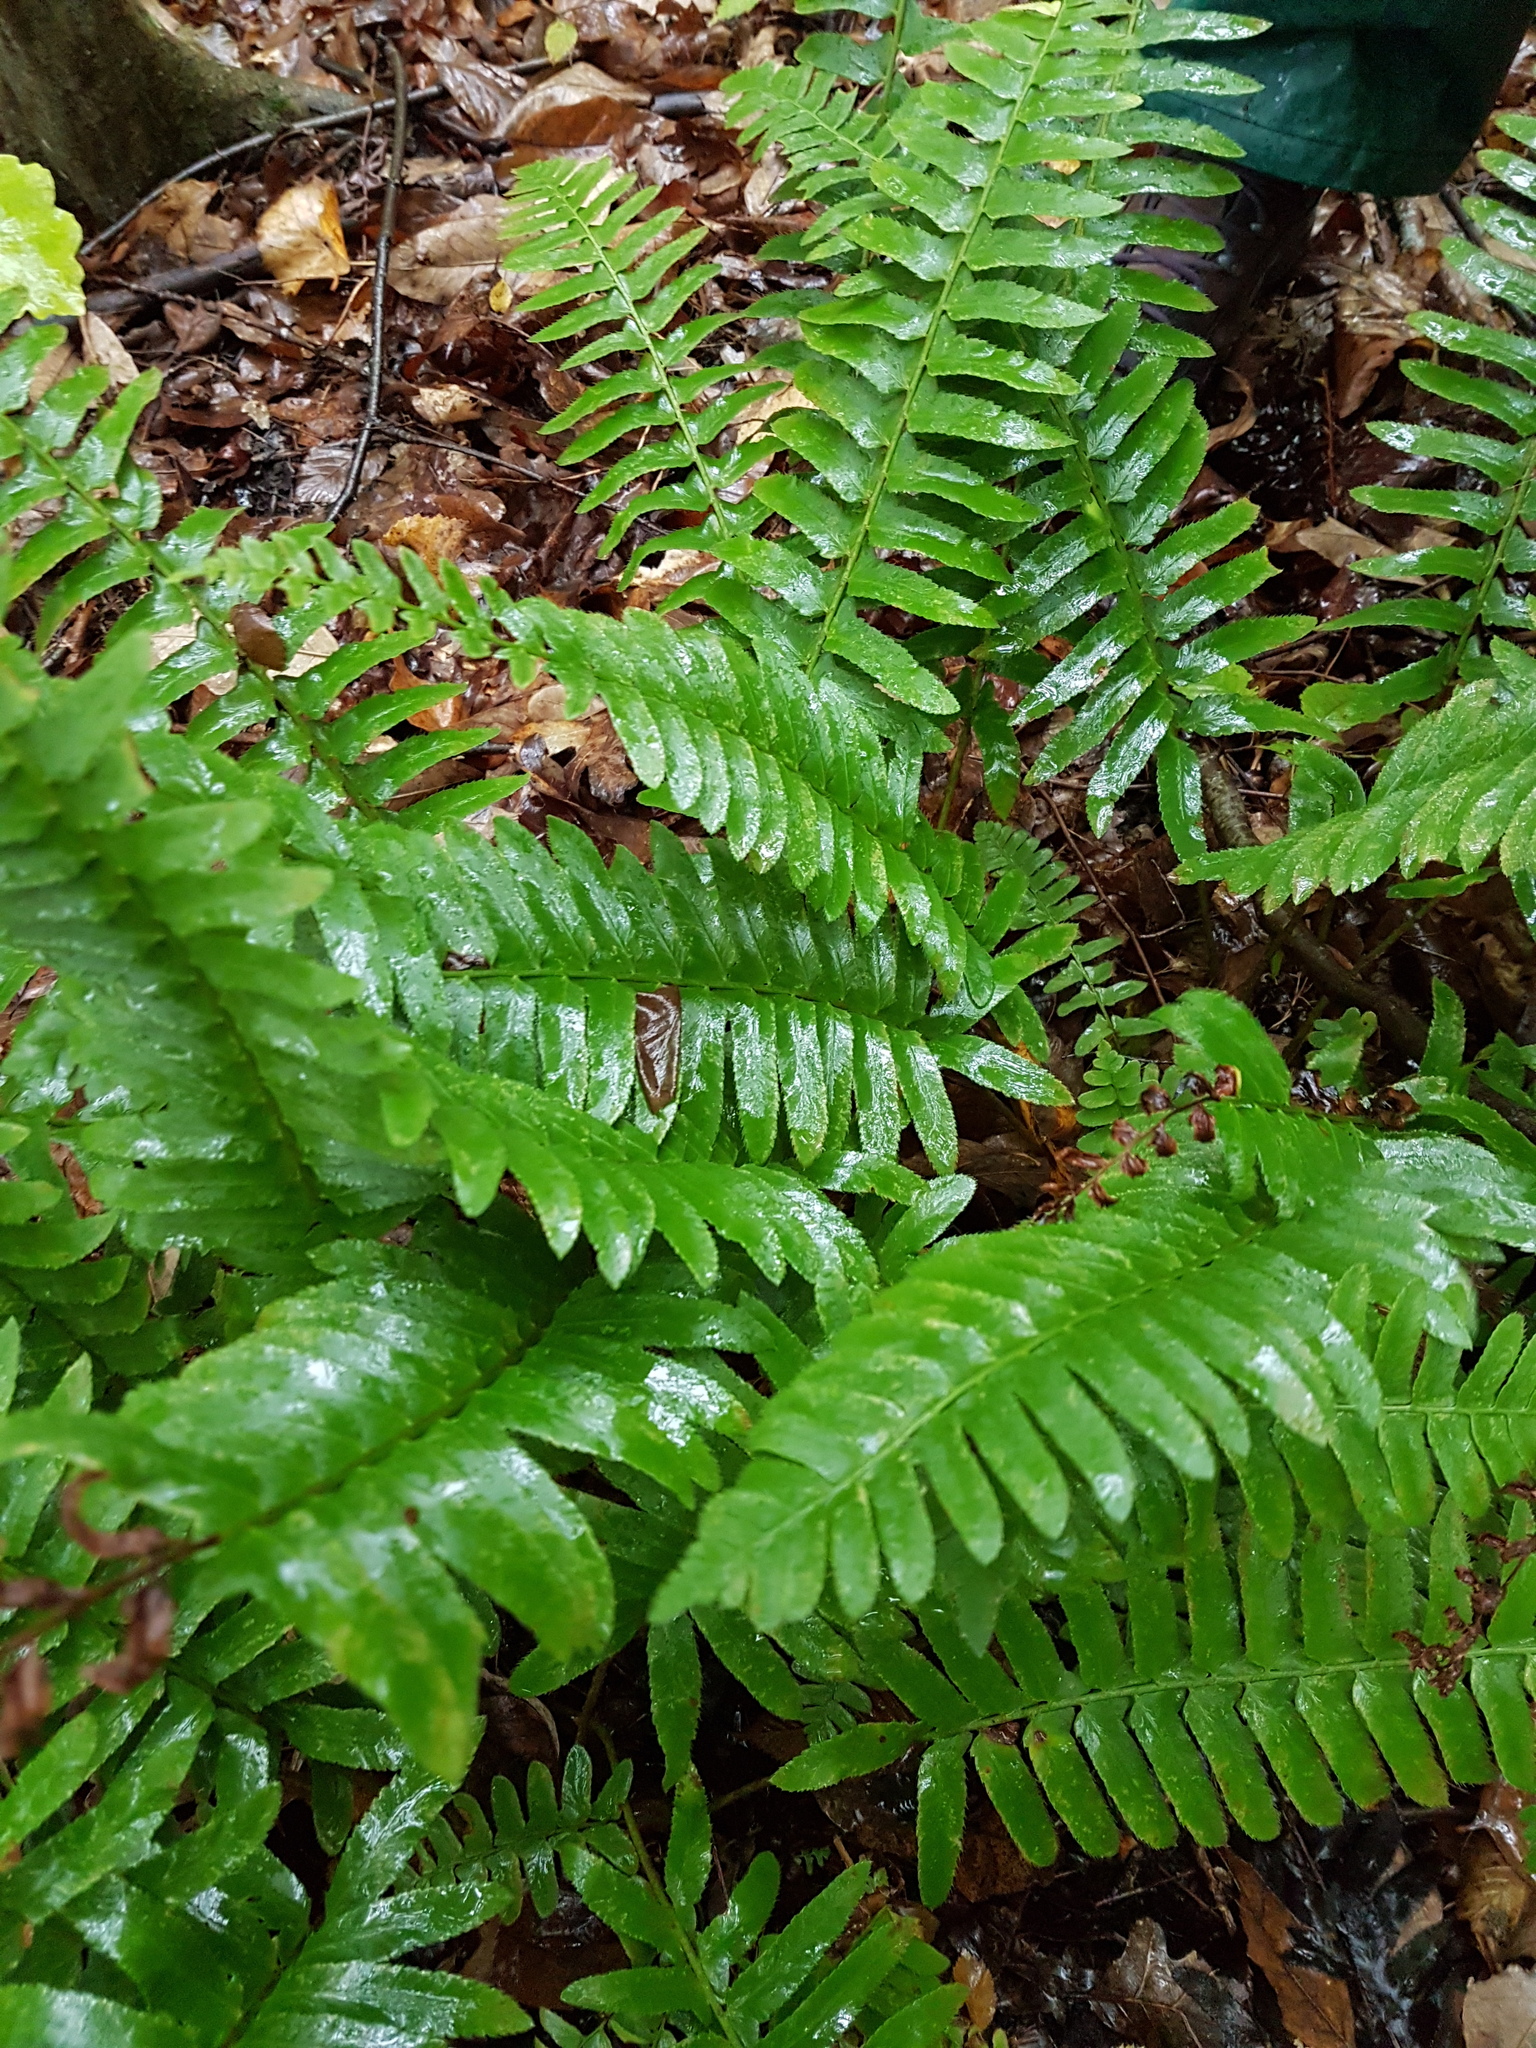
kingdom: Plantae
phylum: Tracheophyta
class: Polypodiopsida
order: Polypodiales
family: Dryopteridaceae
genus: Polystichum
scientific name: Polystichum acrostichoides
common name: Christmas fern
